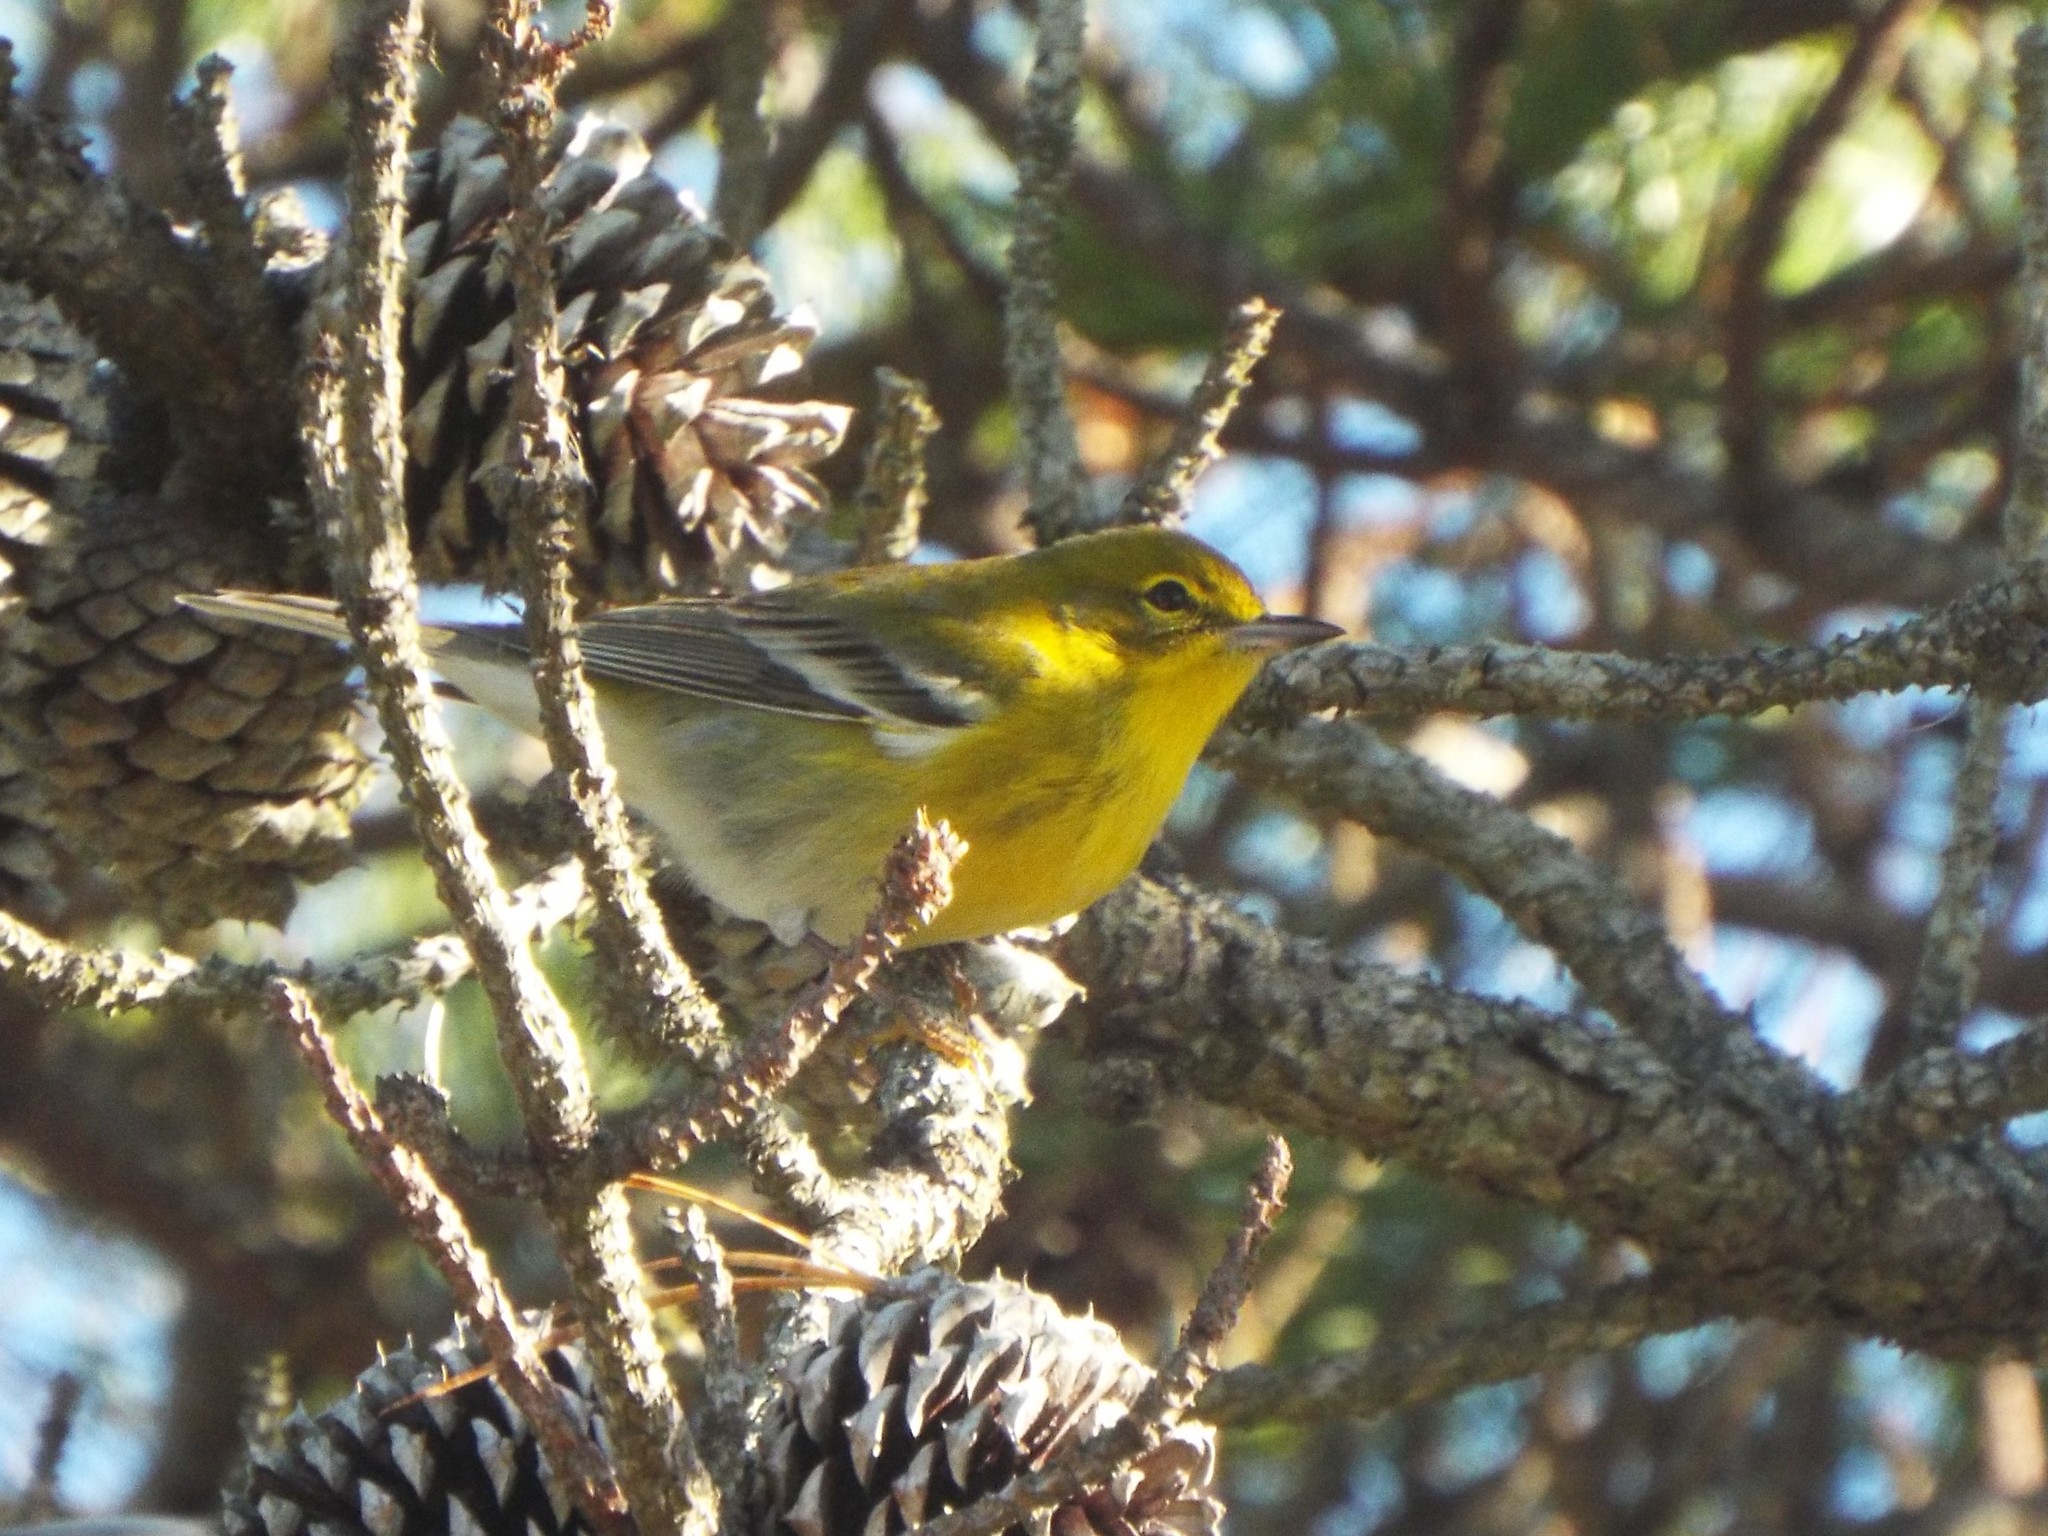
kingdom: Animalia
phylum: Chordata
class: Aves
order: Passeriformes
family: Parulidae
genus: Setophaga
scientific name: Setophaga pinus
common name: Pine warbler
